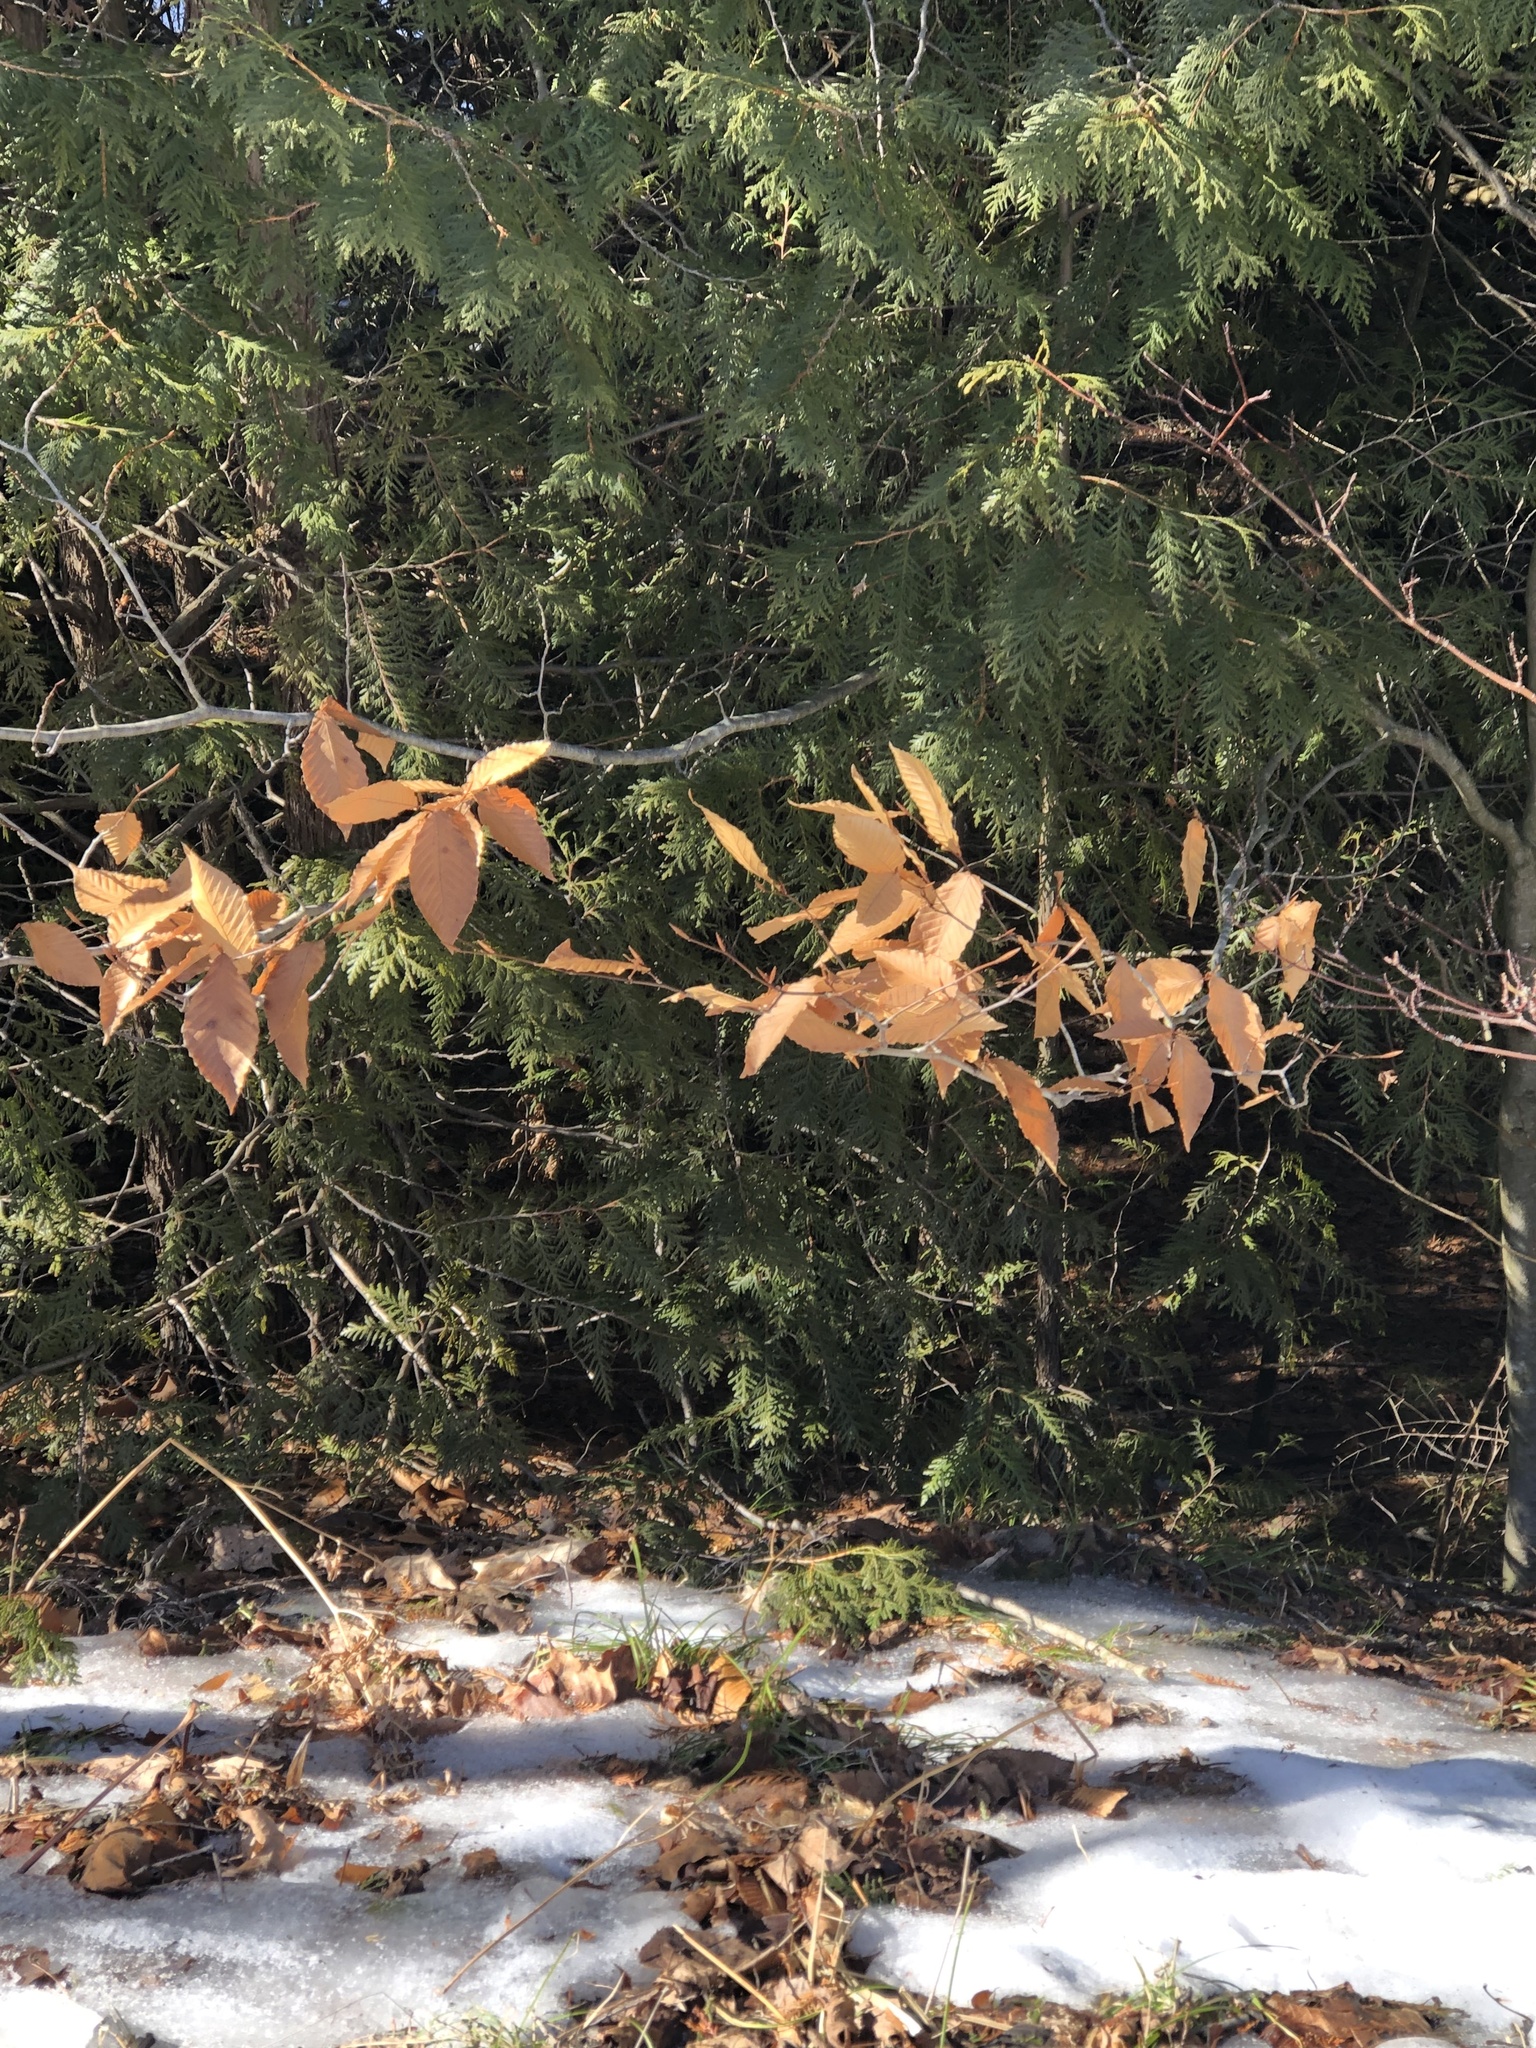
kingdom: Plantae
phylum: Tracheophyta
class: Magnoliopsida
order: Fagales
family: Fagaceae
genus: Fagus
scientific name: Fagus grandifolia
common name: American beech
